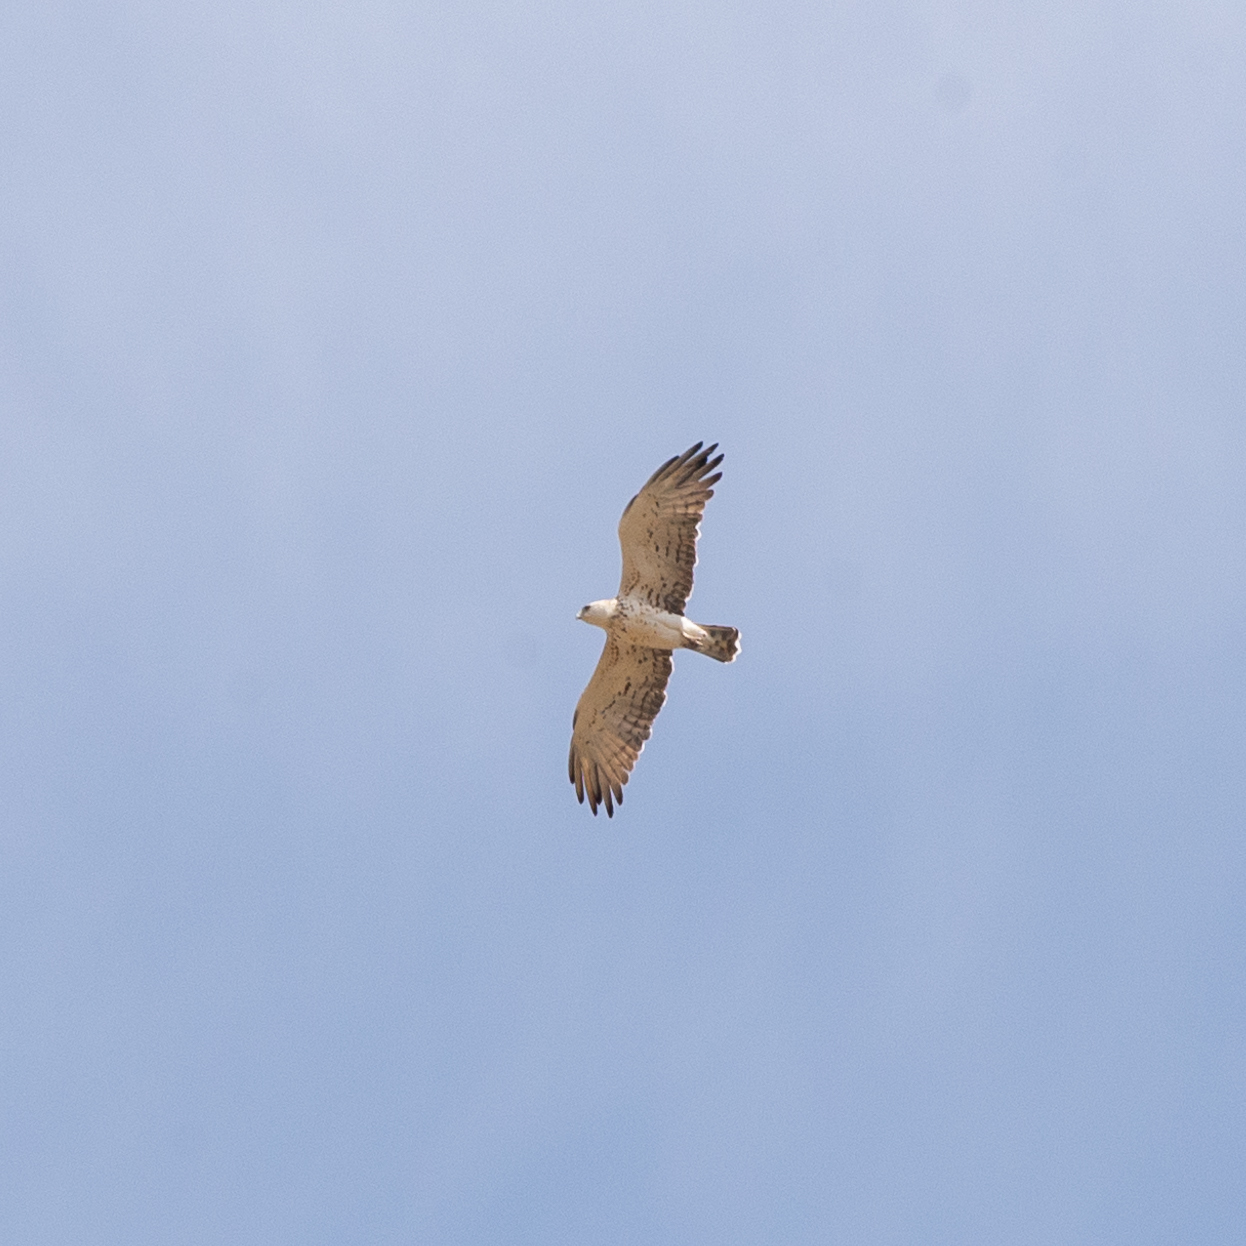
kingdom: Animalia
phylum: Chordata
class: Aves
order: Accipitriformes
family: Accipitridae
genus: Circaetus
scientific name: Circaetus gallicus
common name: Short-toed snake eagle
